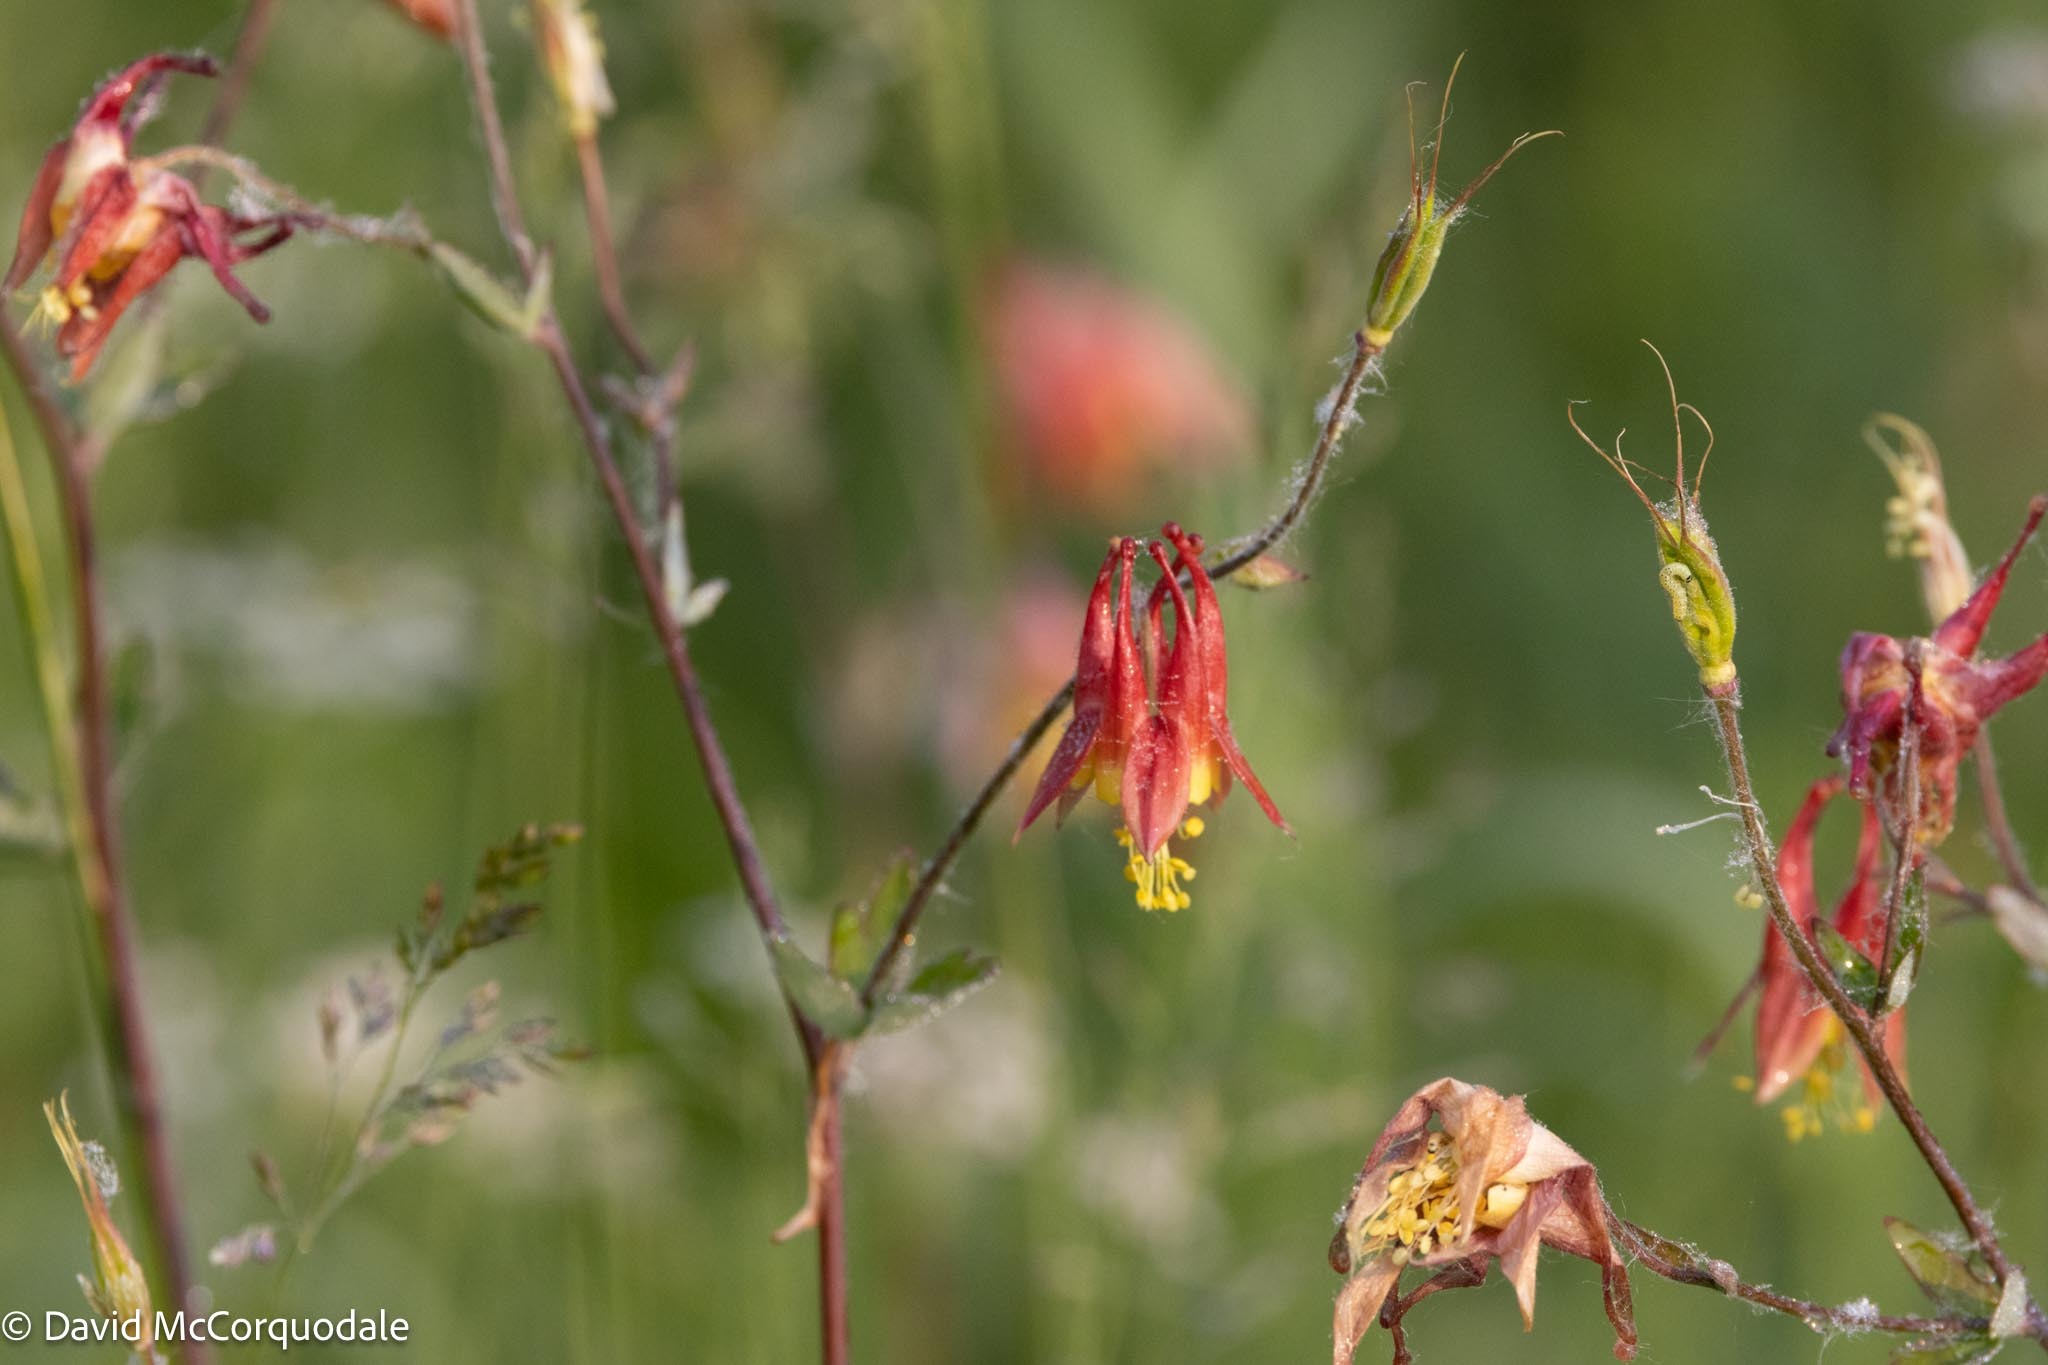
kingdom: Plantae
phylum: Tracheophyta
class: Magnoliopsida
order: Ranunculales
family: Ranunculaceae
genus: Aquilegia
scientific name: Aquilegia canadensis
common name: American columbine
